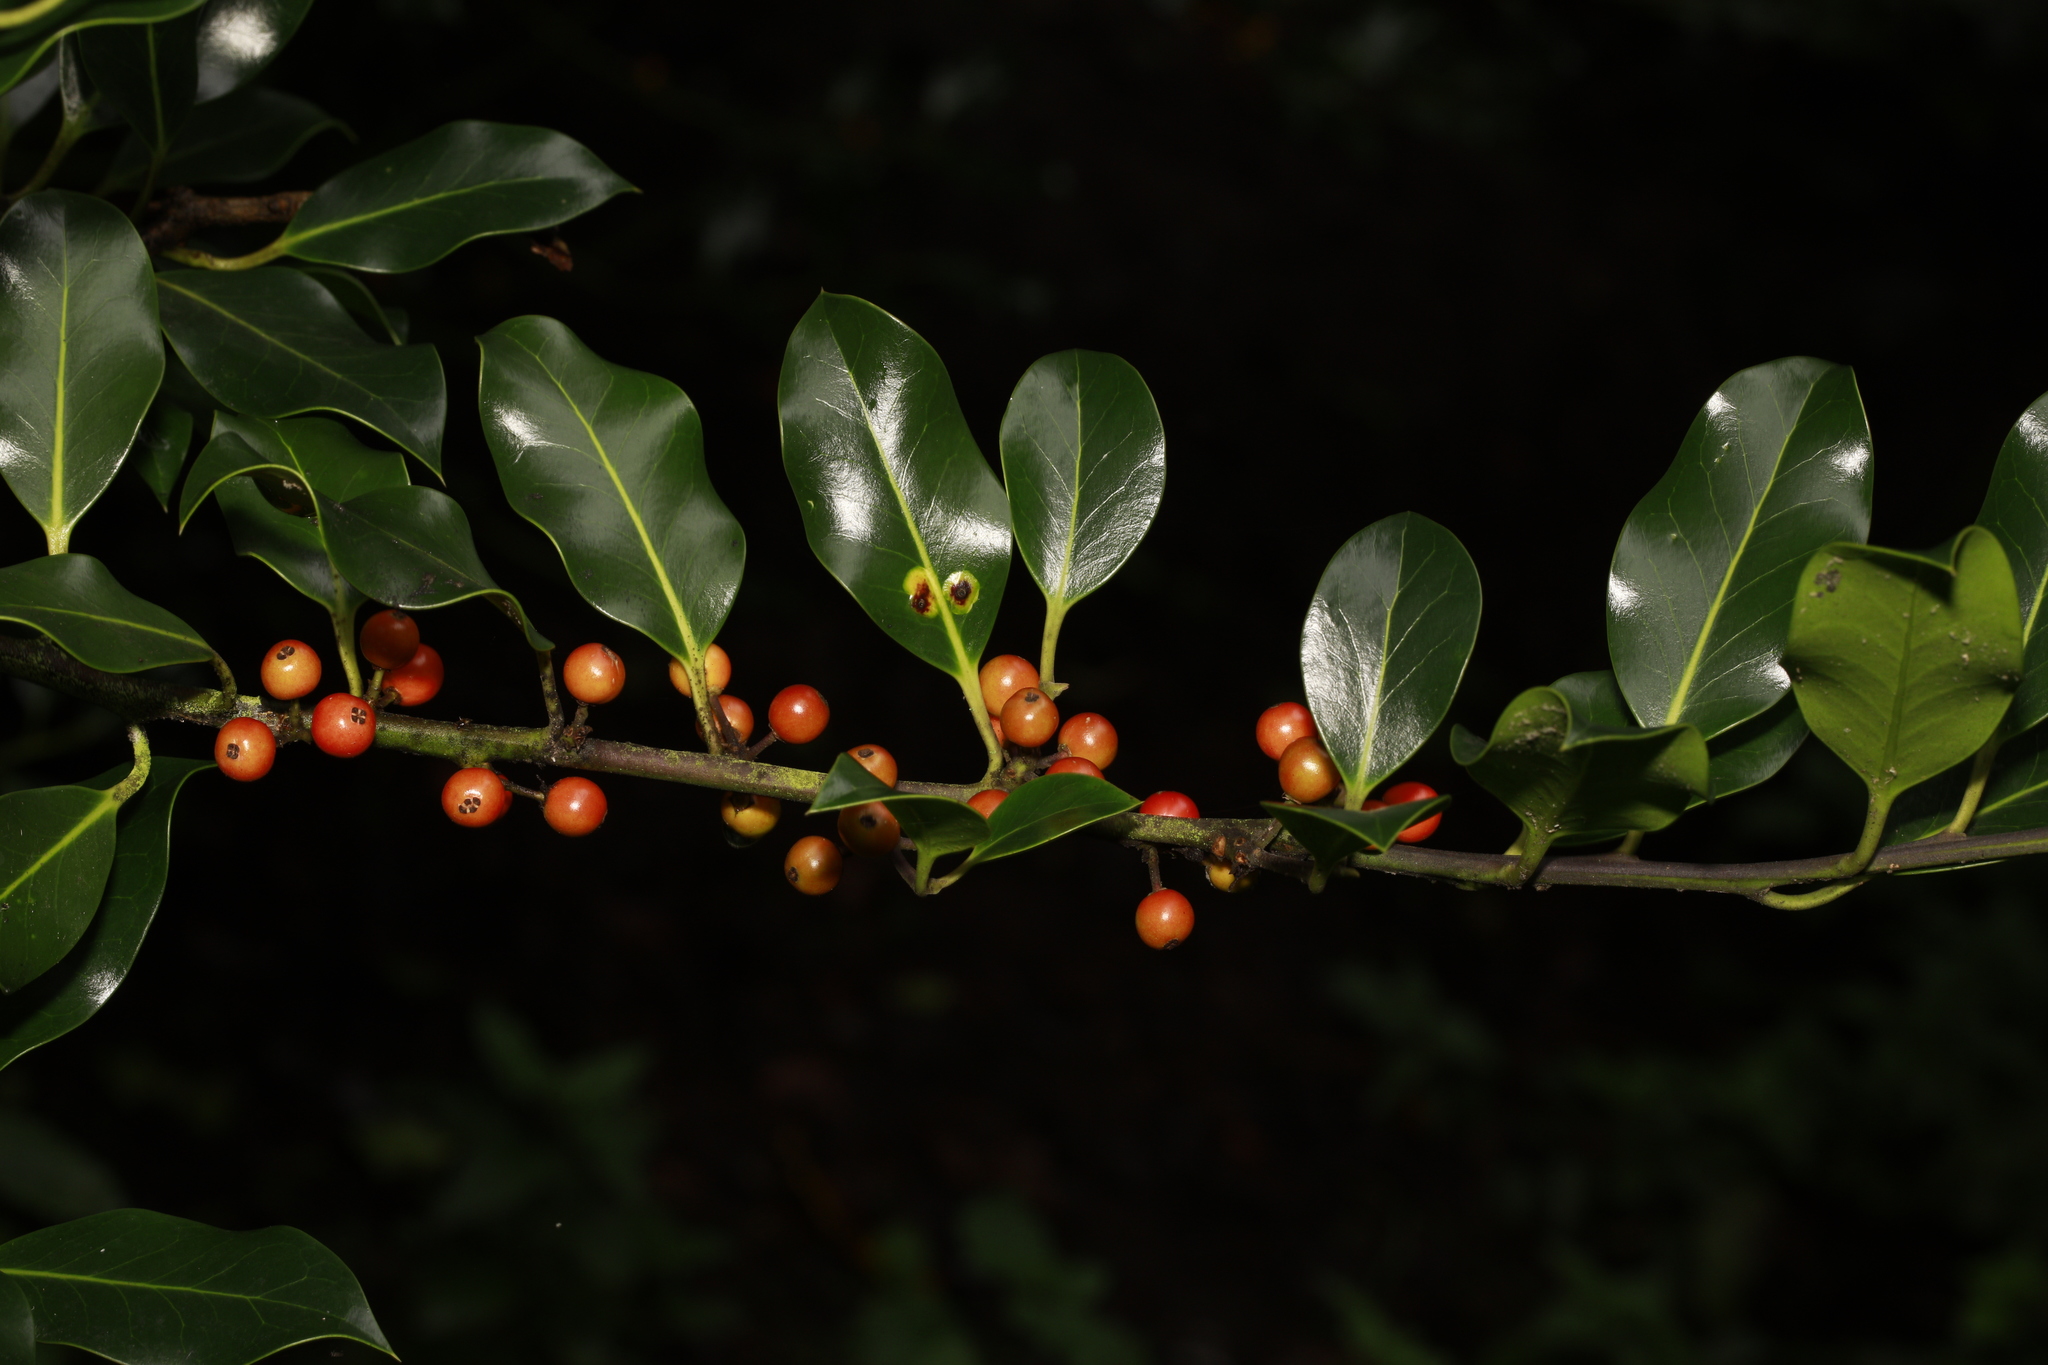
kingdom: Plantae
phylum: Tracheophyta
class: Magnoliopsida
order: Aquifoliales
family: Aquifoliaceae
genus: Ilex
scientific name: Ilex aquifolium
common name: English holly
